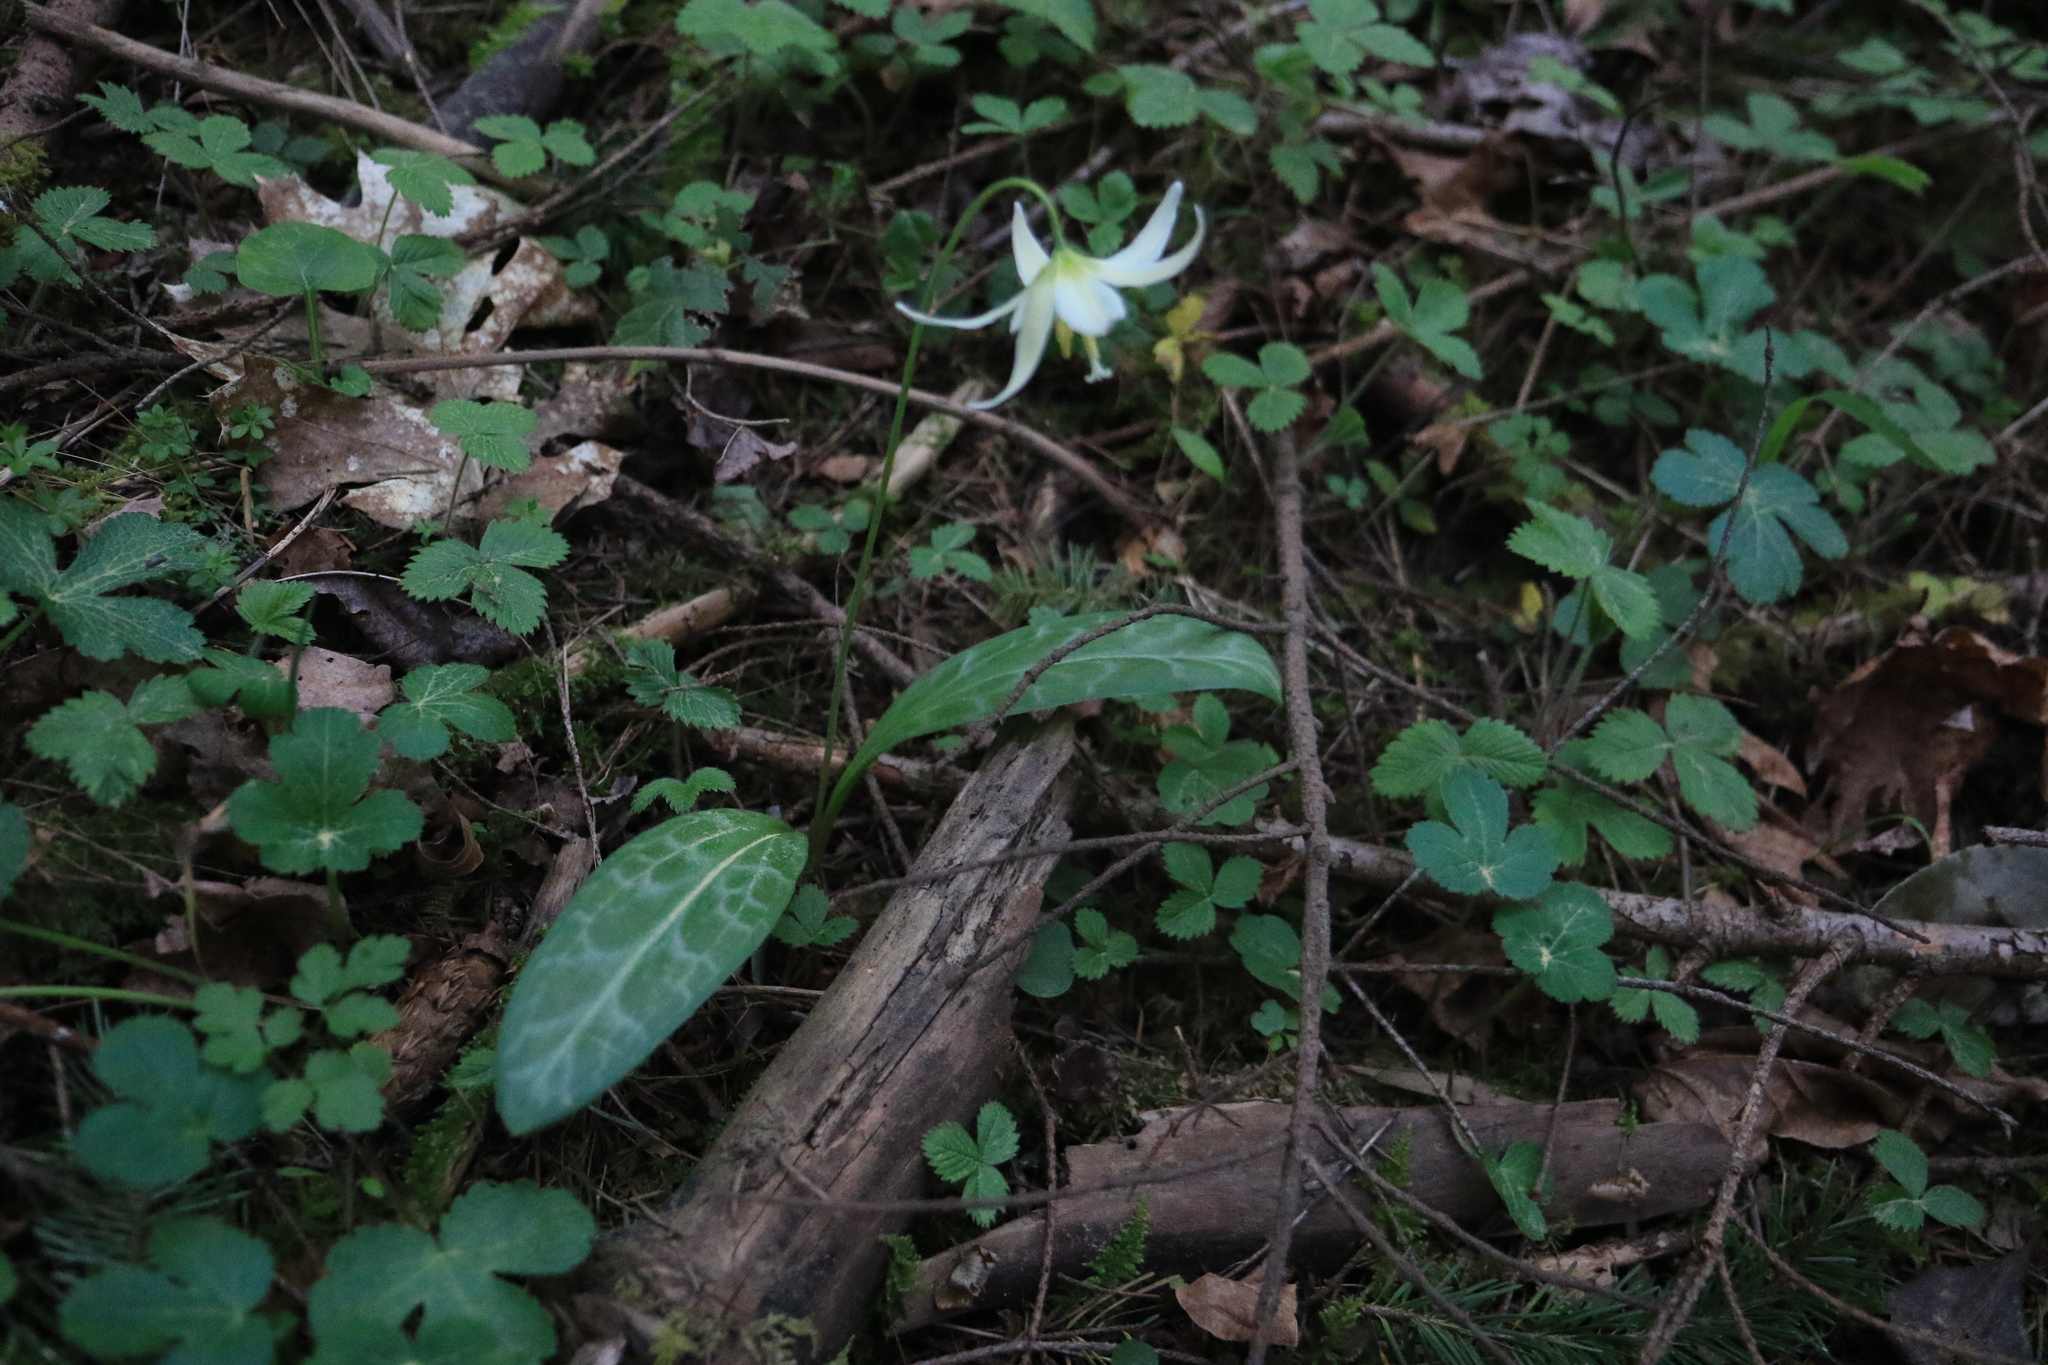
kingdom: Plantae
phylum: Tracheophyta
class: Liliopsida
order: Liliales
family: Liliaceae
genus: Erythronium
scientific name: Erythronium oregonum
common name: Giant adder's-tongue
